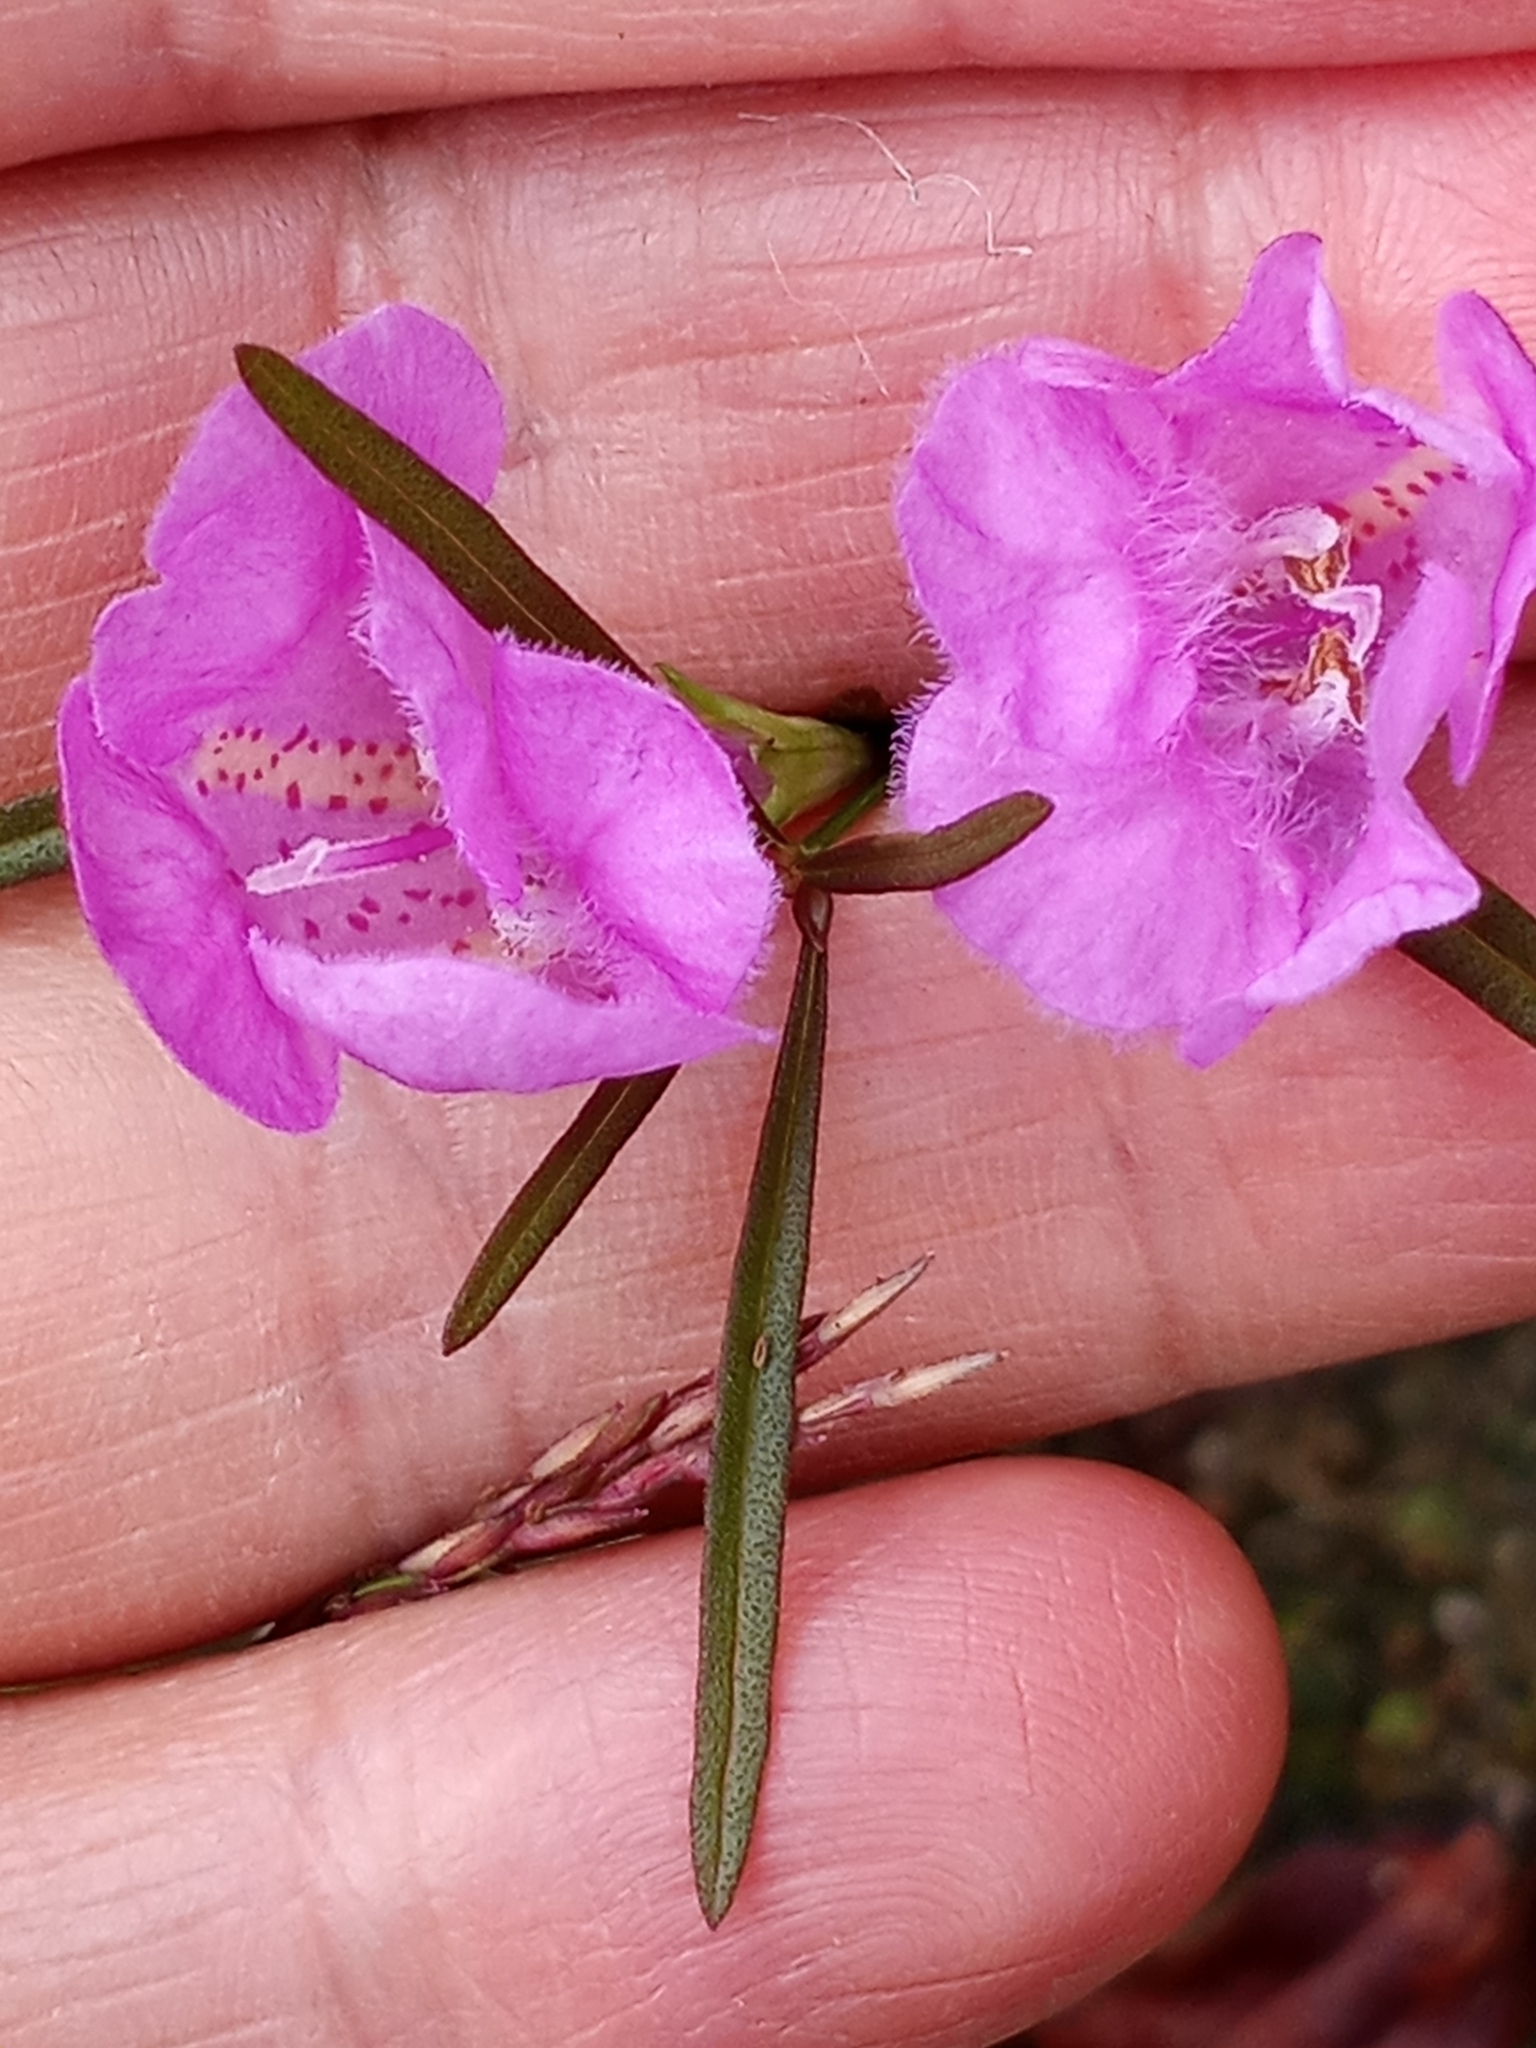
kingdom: Plantae
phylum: Tracheophyta
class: Magnoliopsida
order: Lamiales
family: Orobanchaceae
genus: Agalinis
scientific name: Agalinis purpurea
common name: Purple false foxglove
